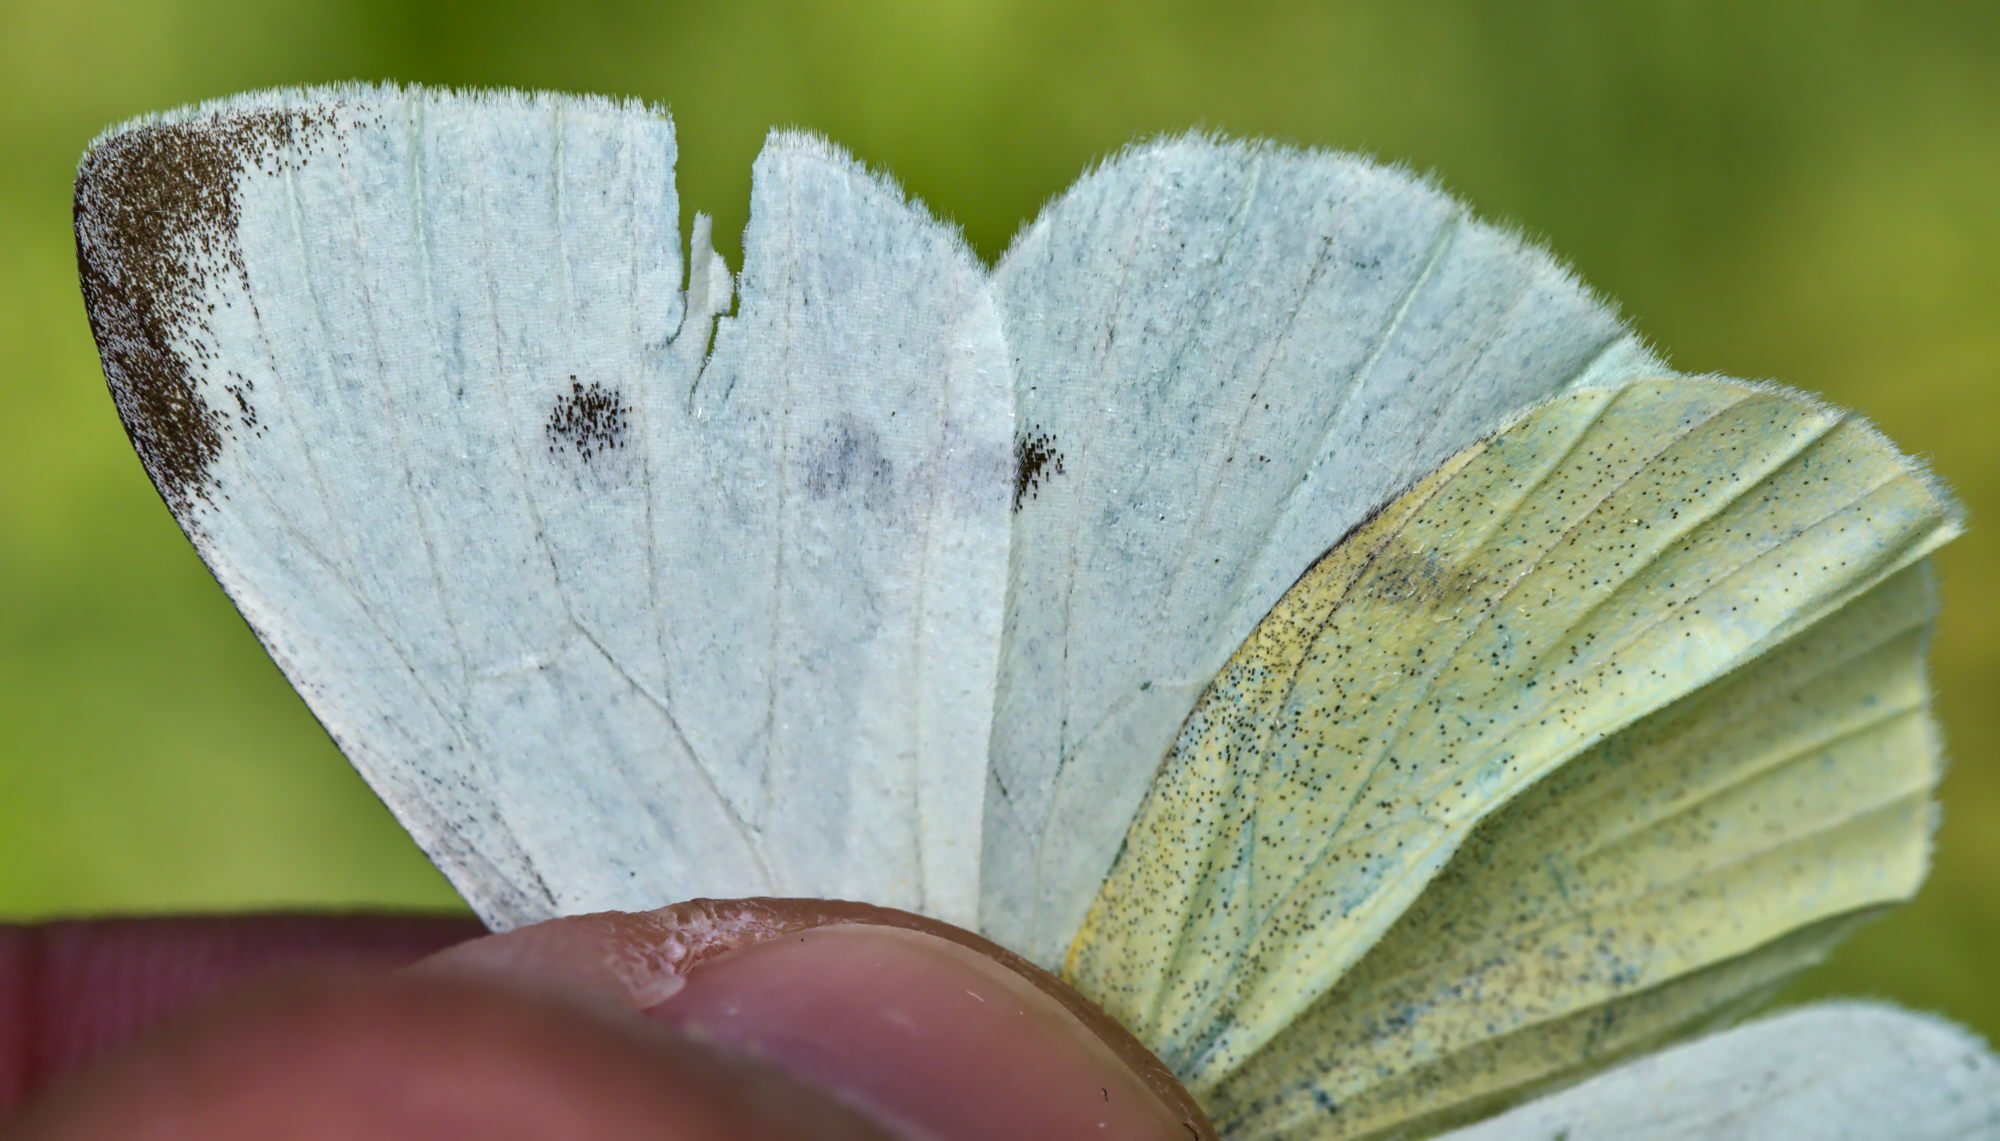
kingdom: Animalia
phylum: Arthropoda
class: Insecta
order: Lepidoptera
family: Pieridae
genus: Pieris
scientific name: Pieris rapae
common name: Small white
